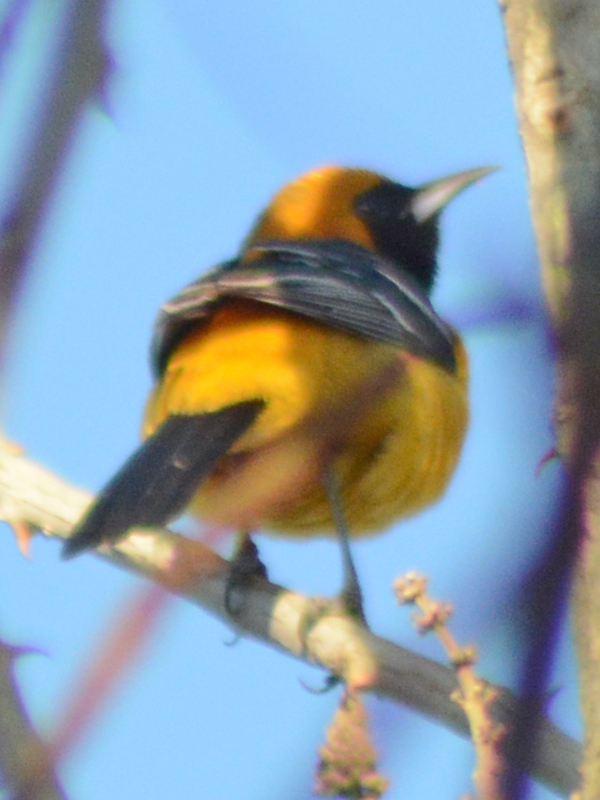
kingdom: Animalia
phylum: Chordata
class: Aves
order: Passeriformes
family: Icteridae
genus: Icterus
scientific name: Icterus cucullatus
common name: Hooded oriole
